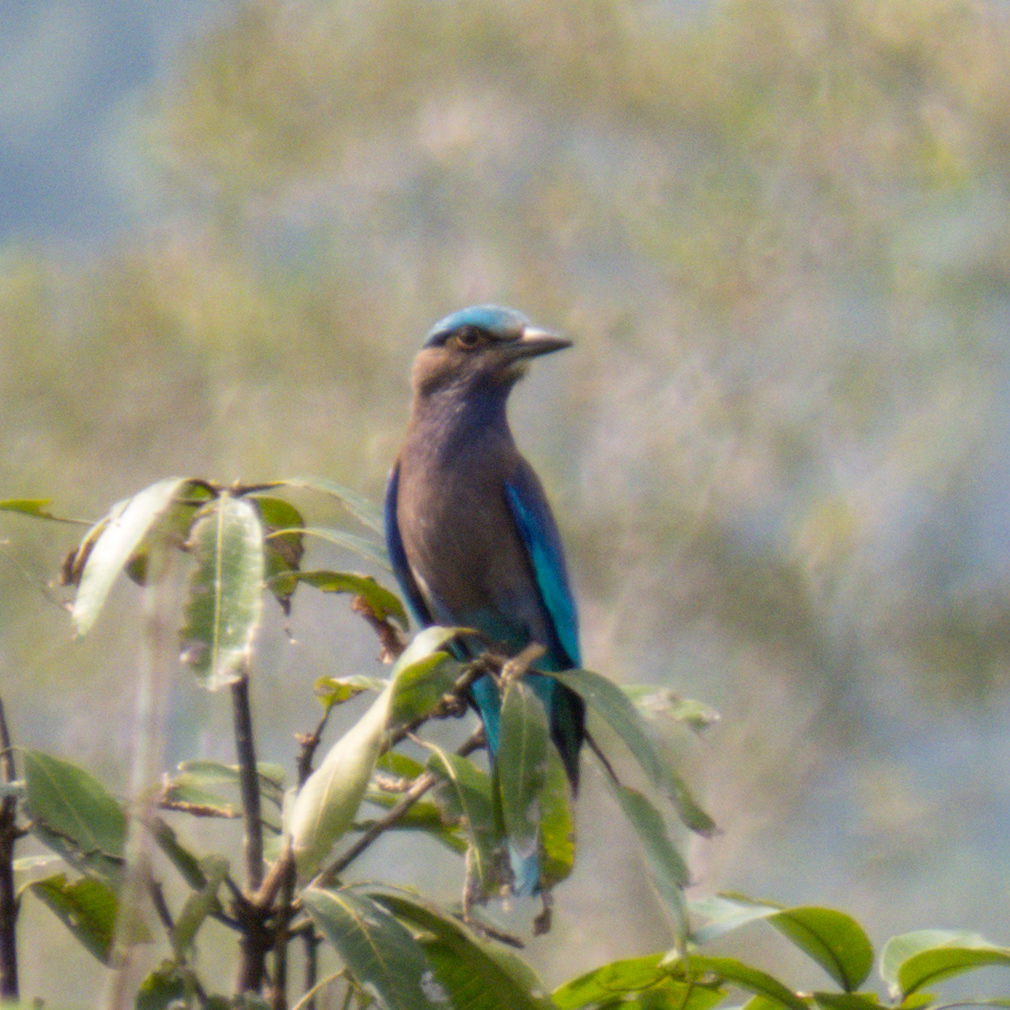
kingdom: Animalia
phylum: Chordata
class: Aves
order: Coraciiformes
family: Coraciidae
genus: Coracias
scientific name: Coracias affinis
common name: Indochinese roller
